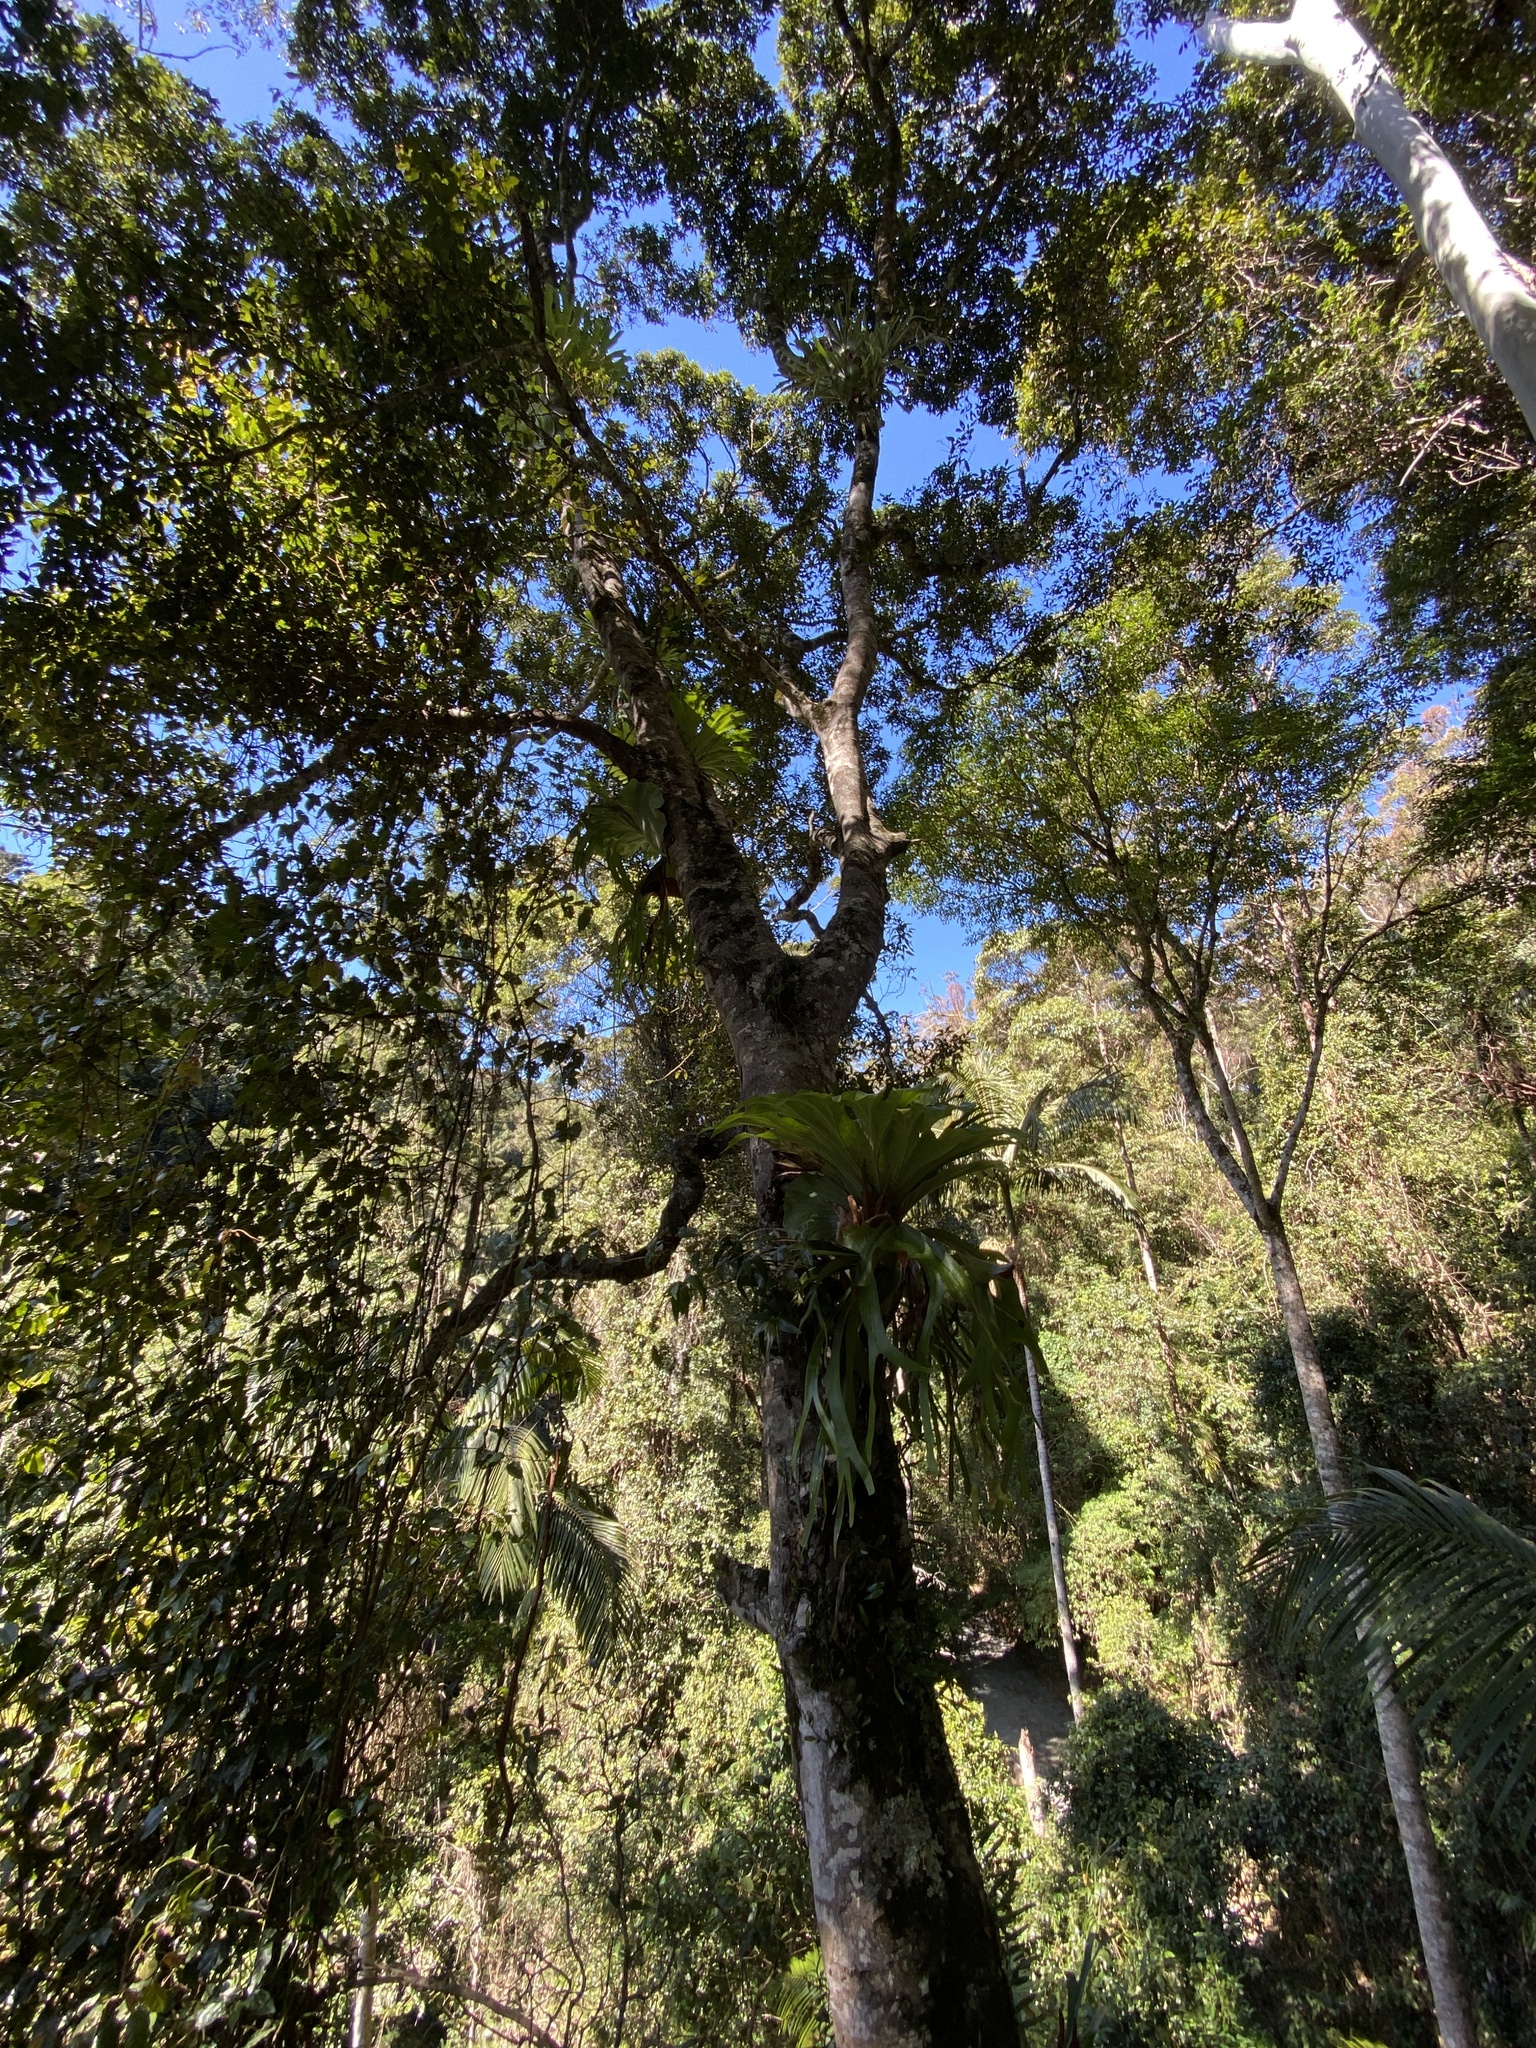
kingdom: Plantae
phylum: Tracheophyta
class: Magnoliopsida
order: Laurales
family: Lauraceae
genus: Cryptocarya
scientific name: Cryptocarya triplinervis
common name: Three-vein cryptocarya
